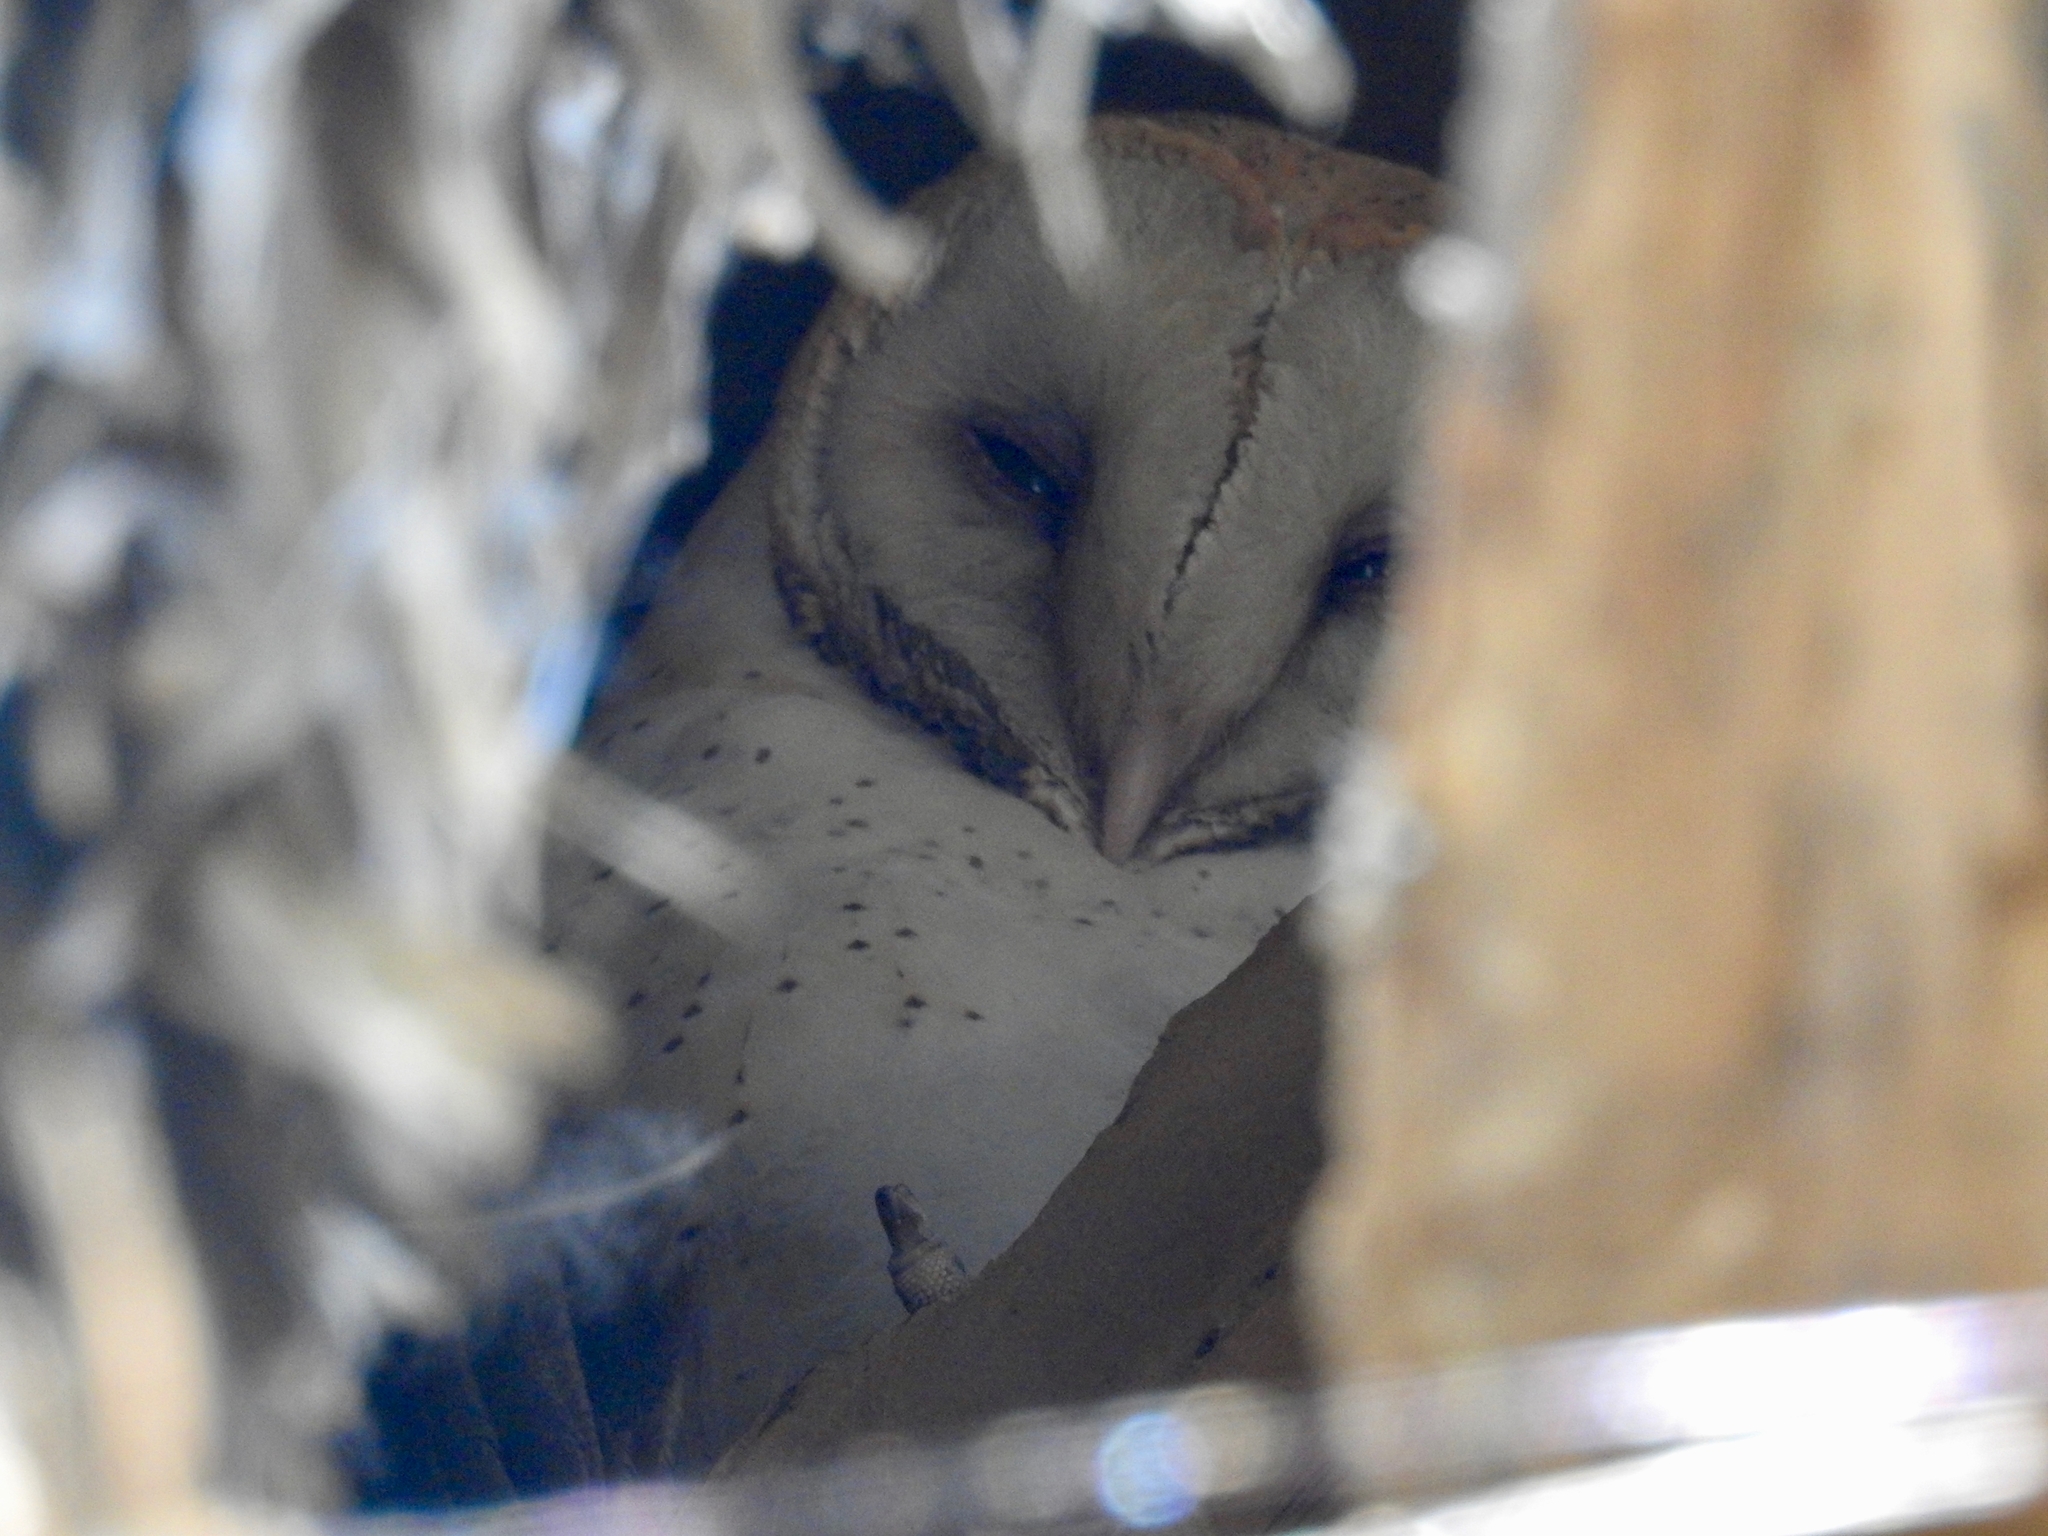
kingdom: Animalia
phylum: Chordata
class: Aves
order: Strigiformes
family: Tytonidae
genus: Tyto
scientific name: Tyto alba
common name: Barn owl
